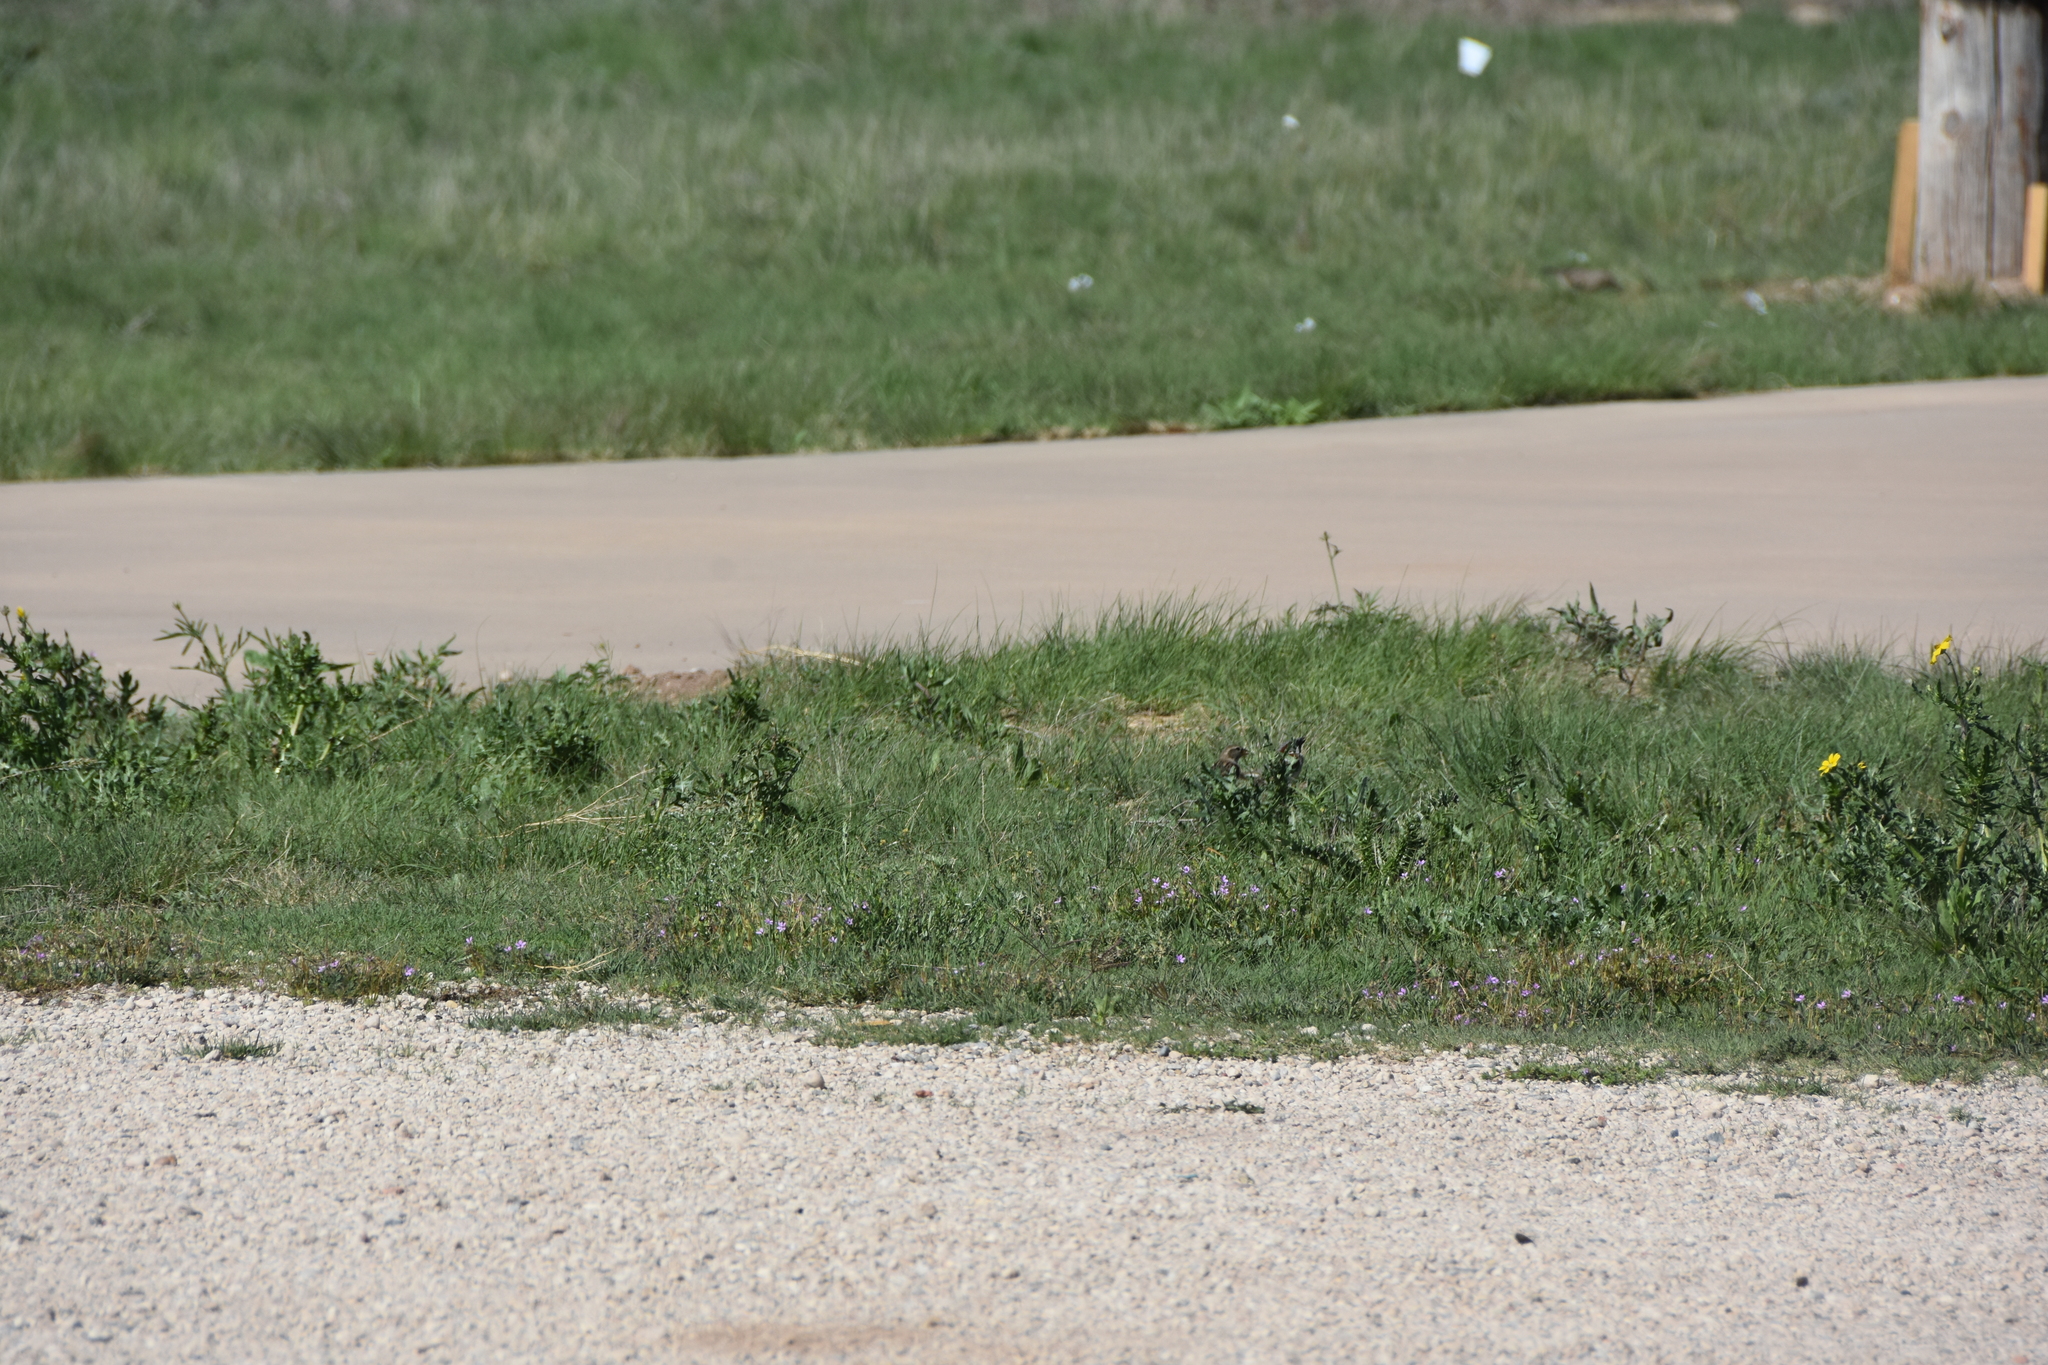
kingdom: Animalia
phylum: Chordata
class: Aves
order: Passeriformes
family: Passeridae
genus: Passer
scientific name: Passer domesticus
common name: House sparrow
